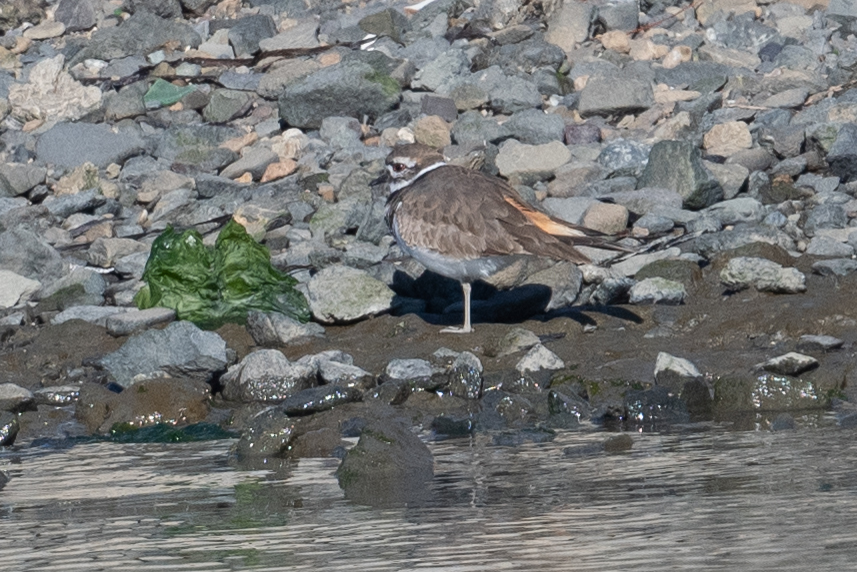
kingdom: Animalia
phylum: Chordata
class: Aves
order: Charadriiformes
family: Charadriidae
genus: Charadrius
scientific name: Charadrius vociferus
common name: Killdeer
